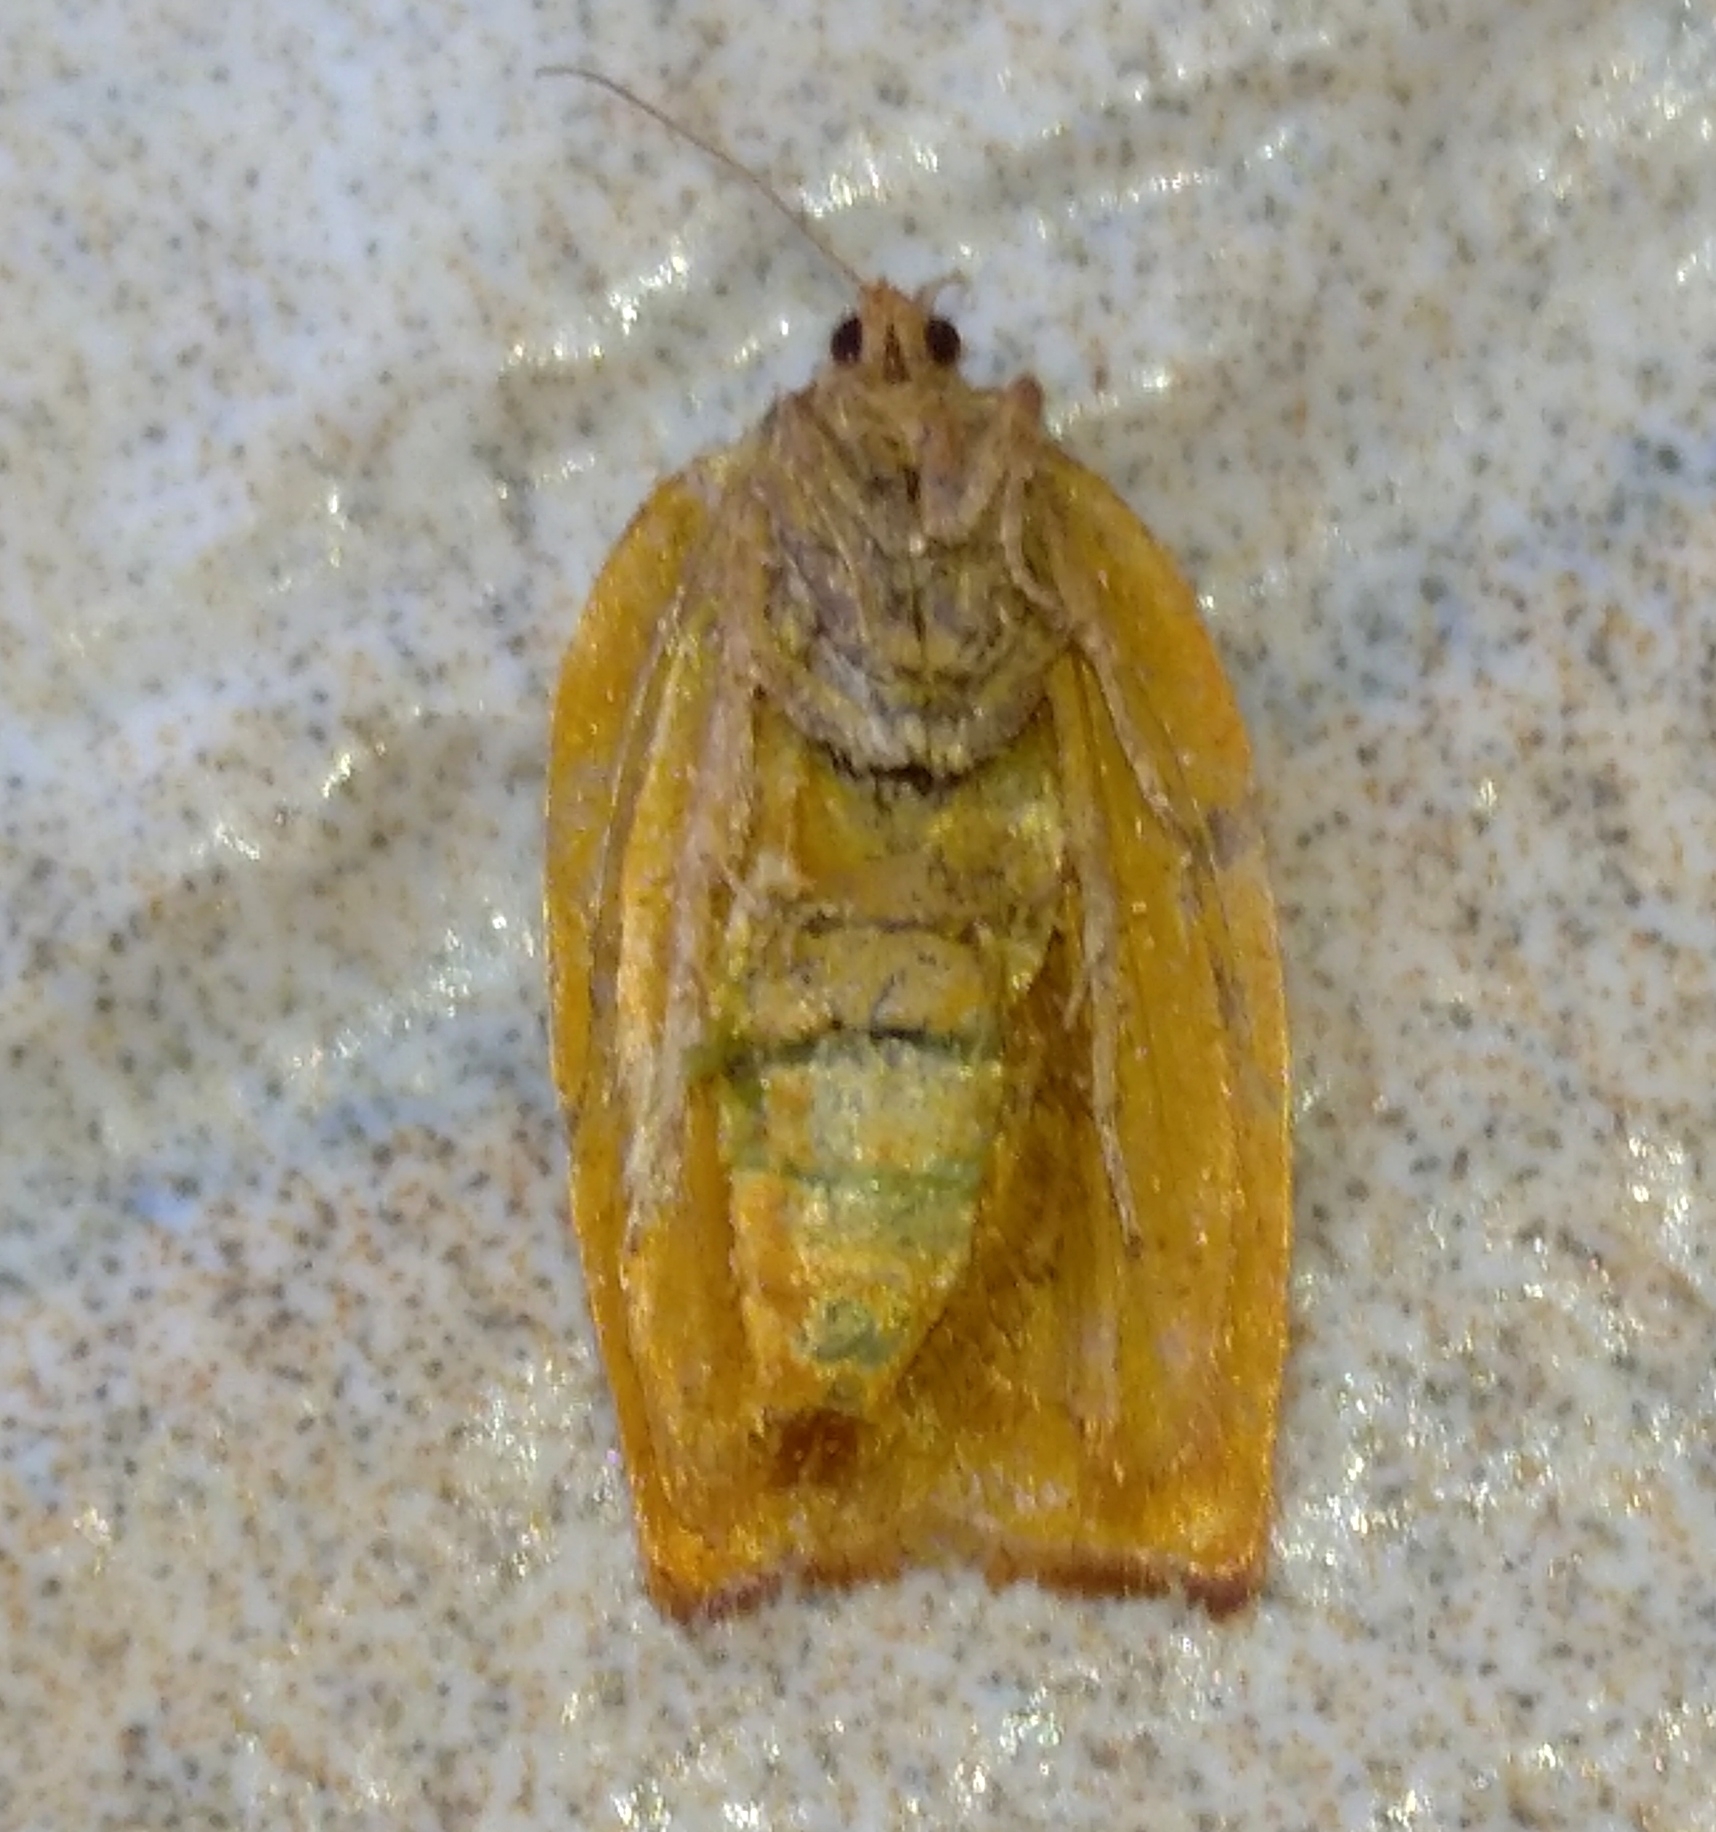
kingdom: Animalia
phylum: Arthropoda
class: Insecta
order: Lepidoptera
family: Tortricidae
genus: Cacoecimorpha
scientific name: Cacoecimorpha pronubana
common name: Carnation tortrix
